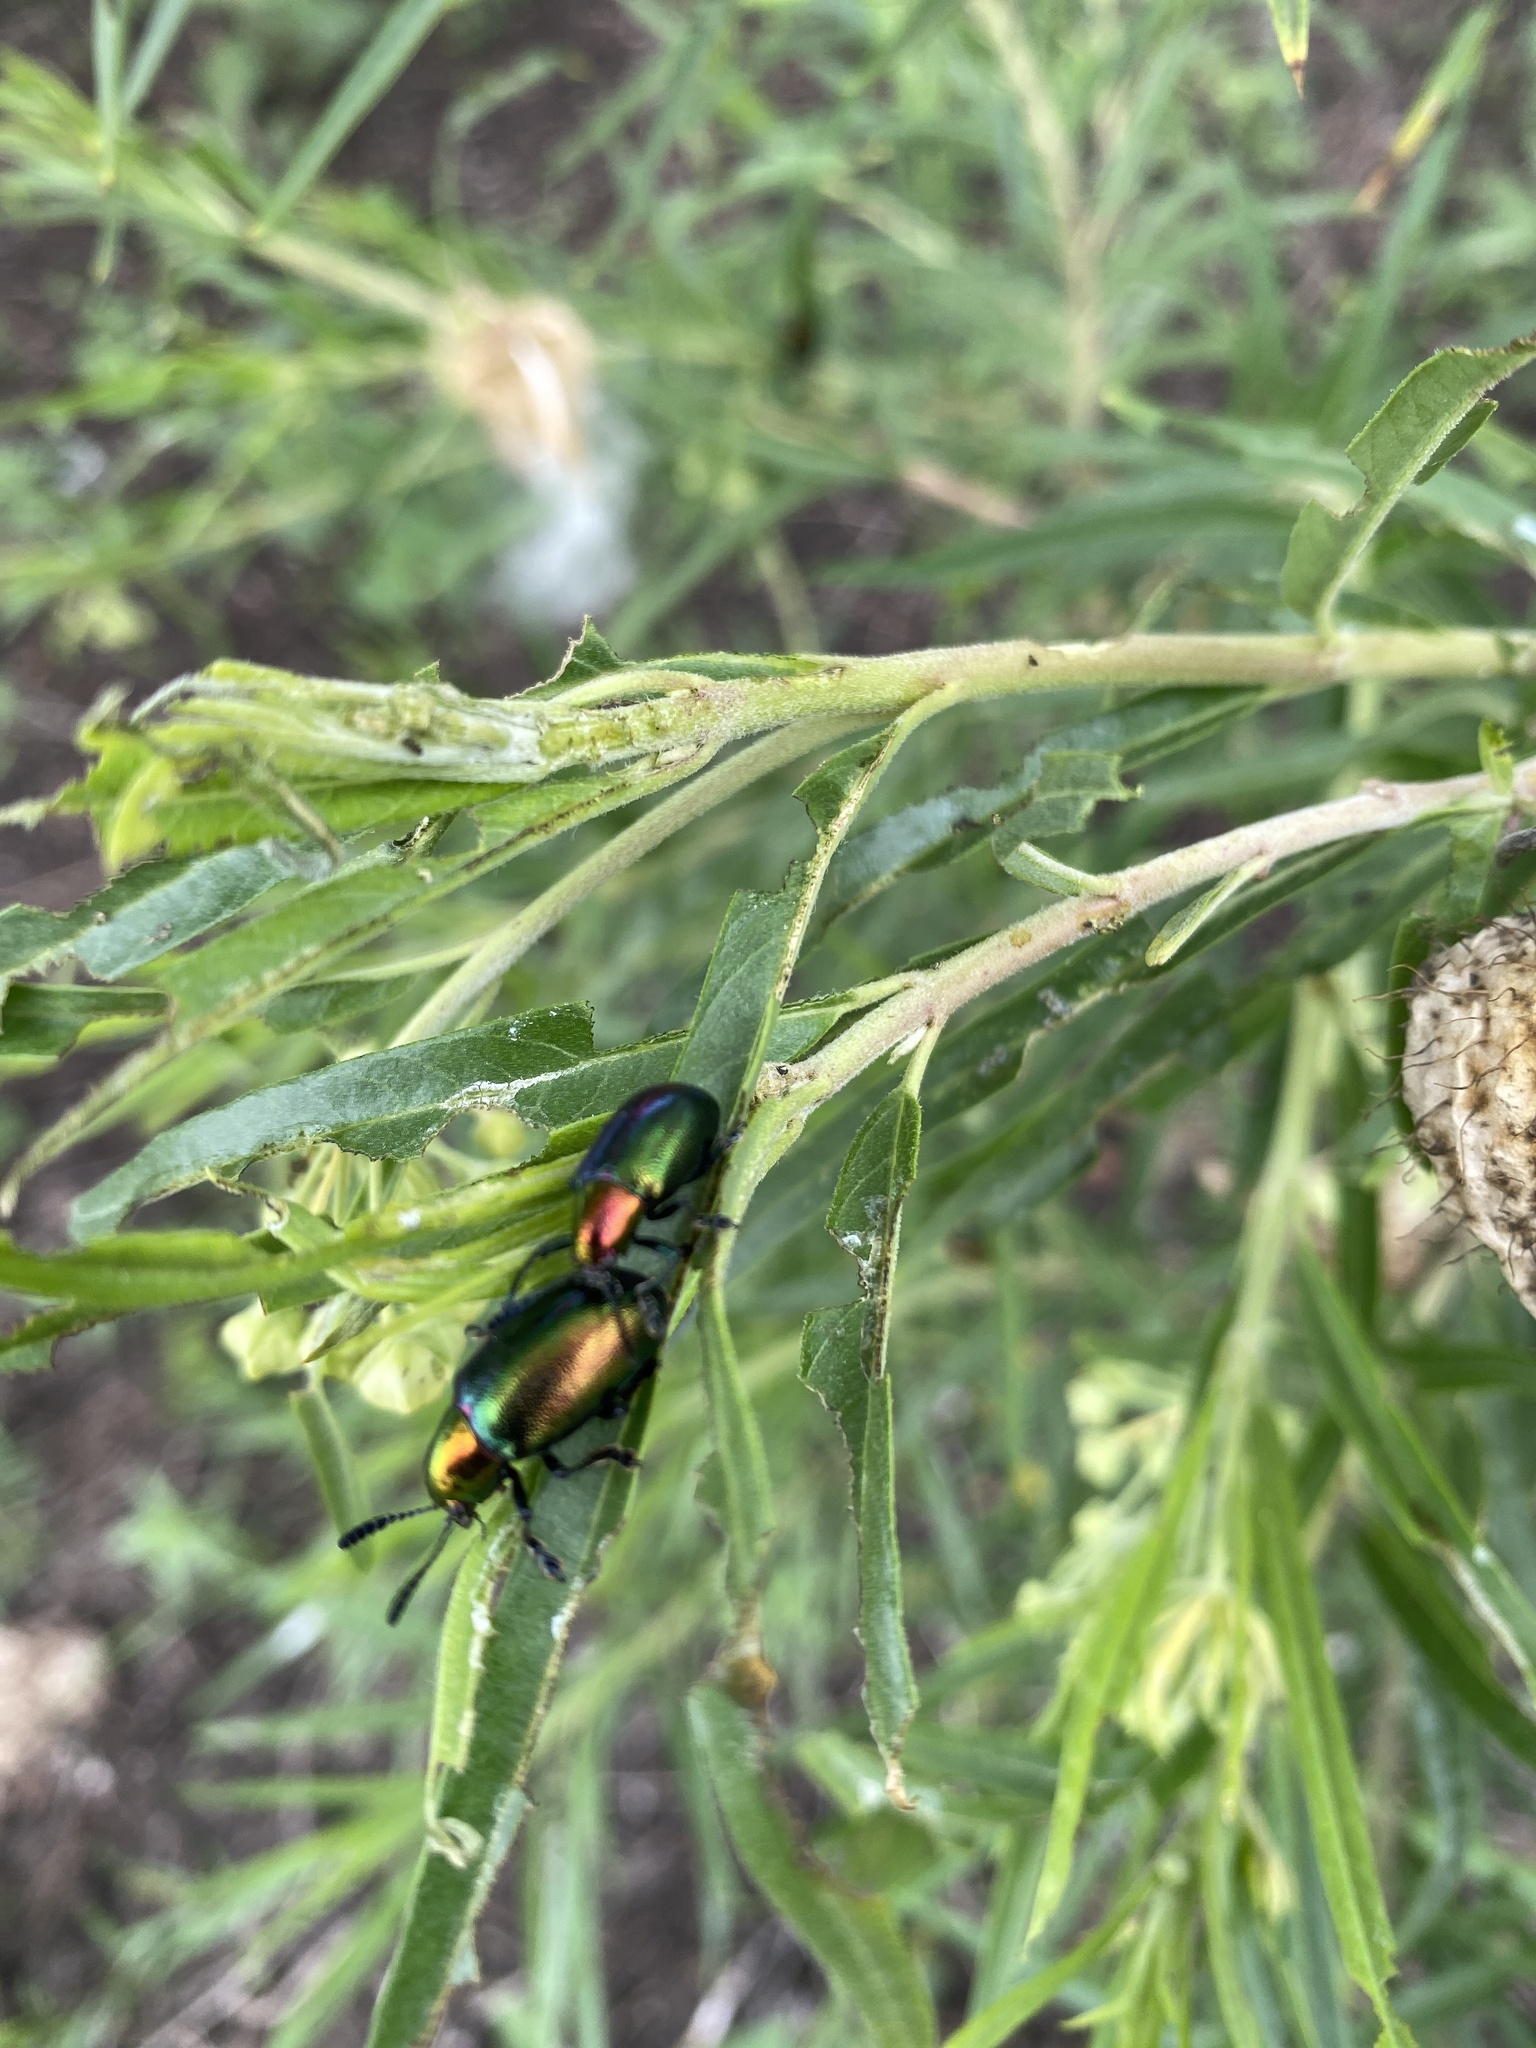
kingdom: Animalia
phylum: Arthropoda
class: Insecta
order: Coleoptera
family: Chrysomelidae
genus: Platycorynus
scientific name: Platycorynus dejeani
